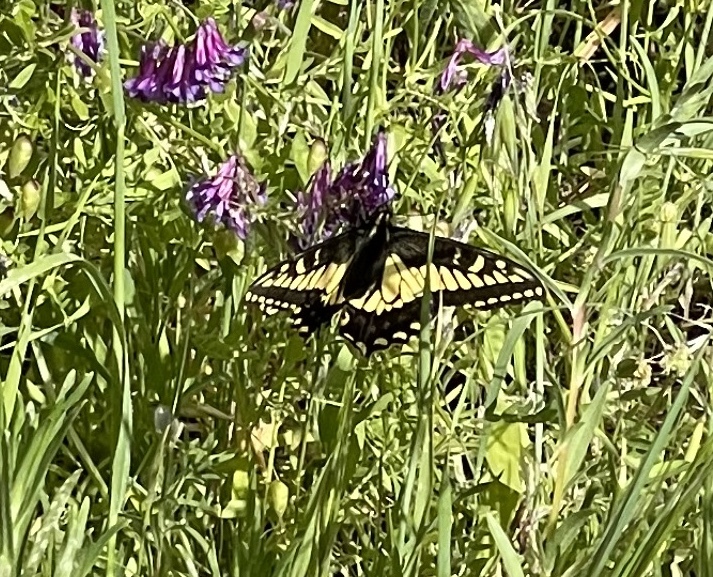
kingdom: Animalia
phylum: Arthropoda
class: Insecta
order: Lepidoptera
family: Papilionidae
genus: Papilio
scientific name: Papilio zelicaon
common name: Anise swallowtail
